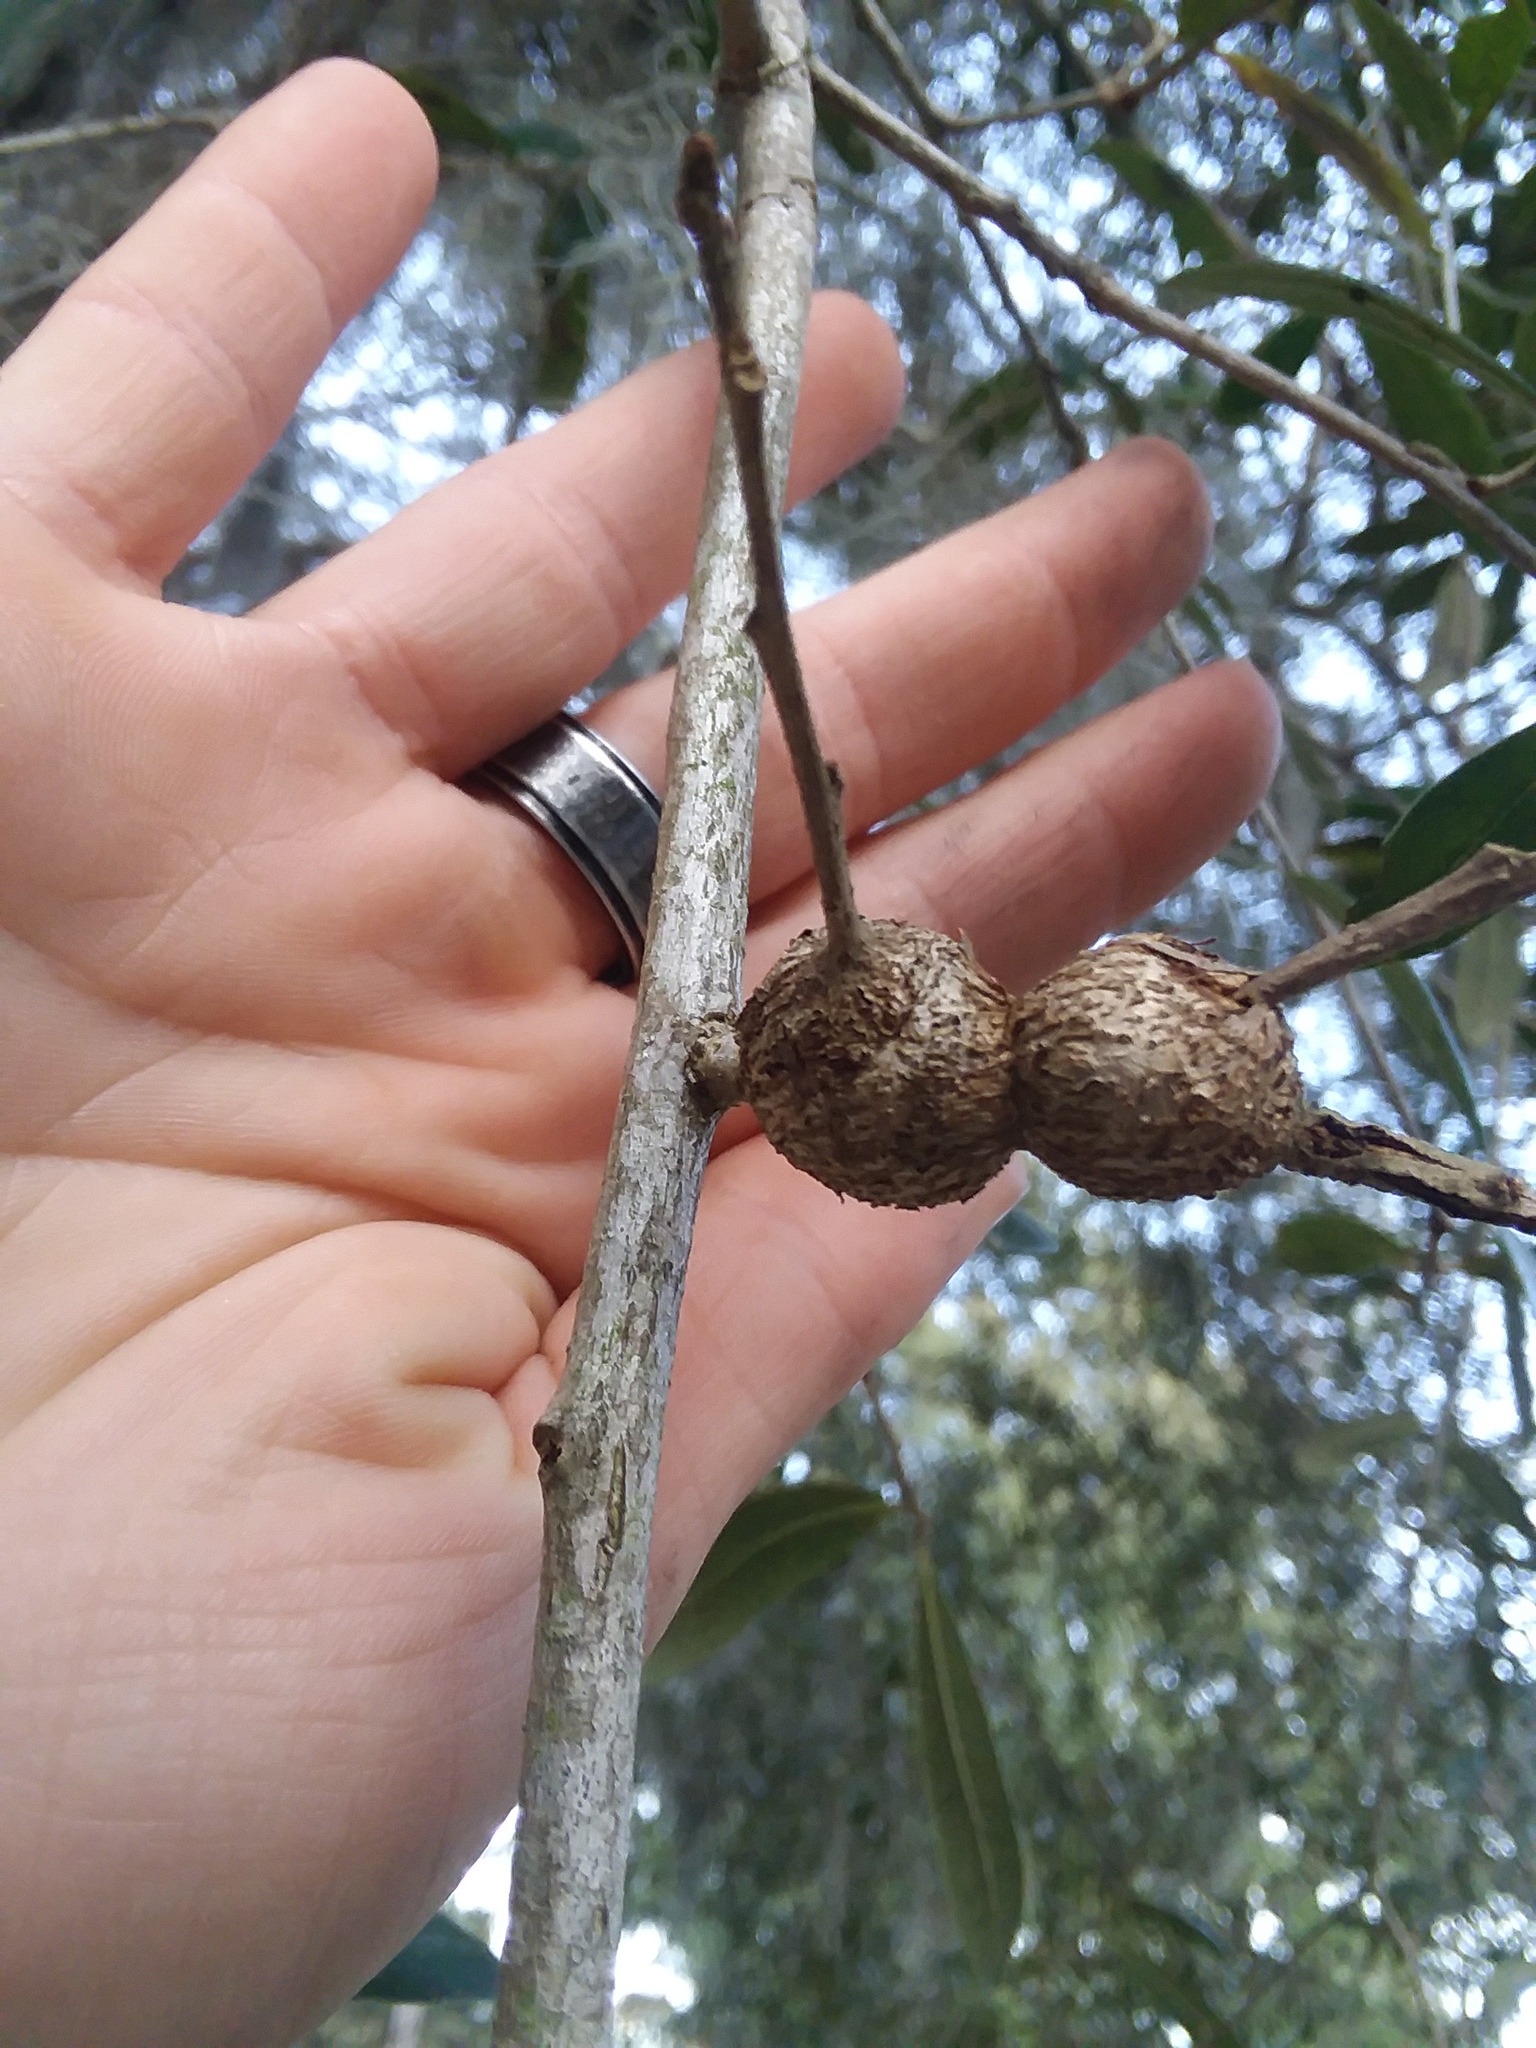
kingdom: Animalia
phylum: Arthropoda
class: Insecta
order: Hymenoptera
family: Cynipidae
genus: Callirhytis
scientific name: Callirhytis
